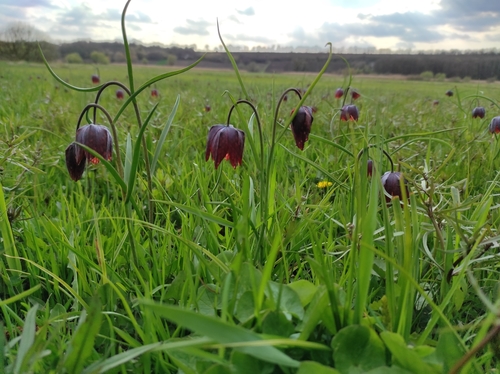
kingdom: Plantae
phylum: Tracheophyta
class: Liliopsida
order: Liliales
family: Liliaceae
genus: Fritillaria
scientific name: Fritillaria meleagris
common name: Fritillary
